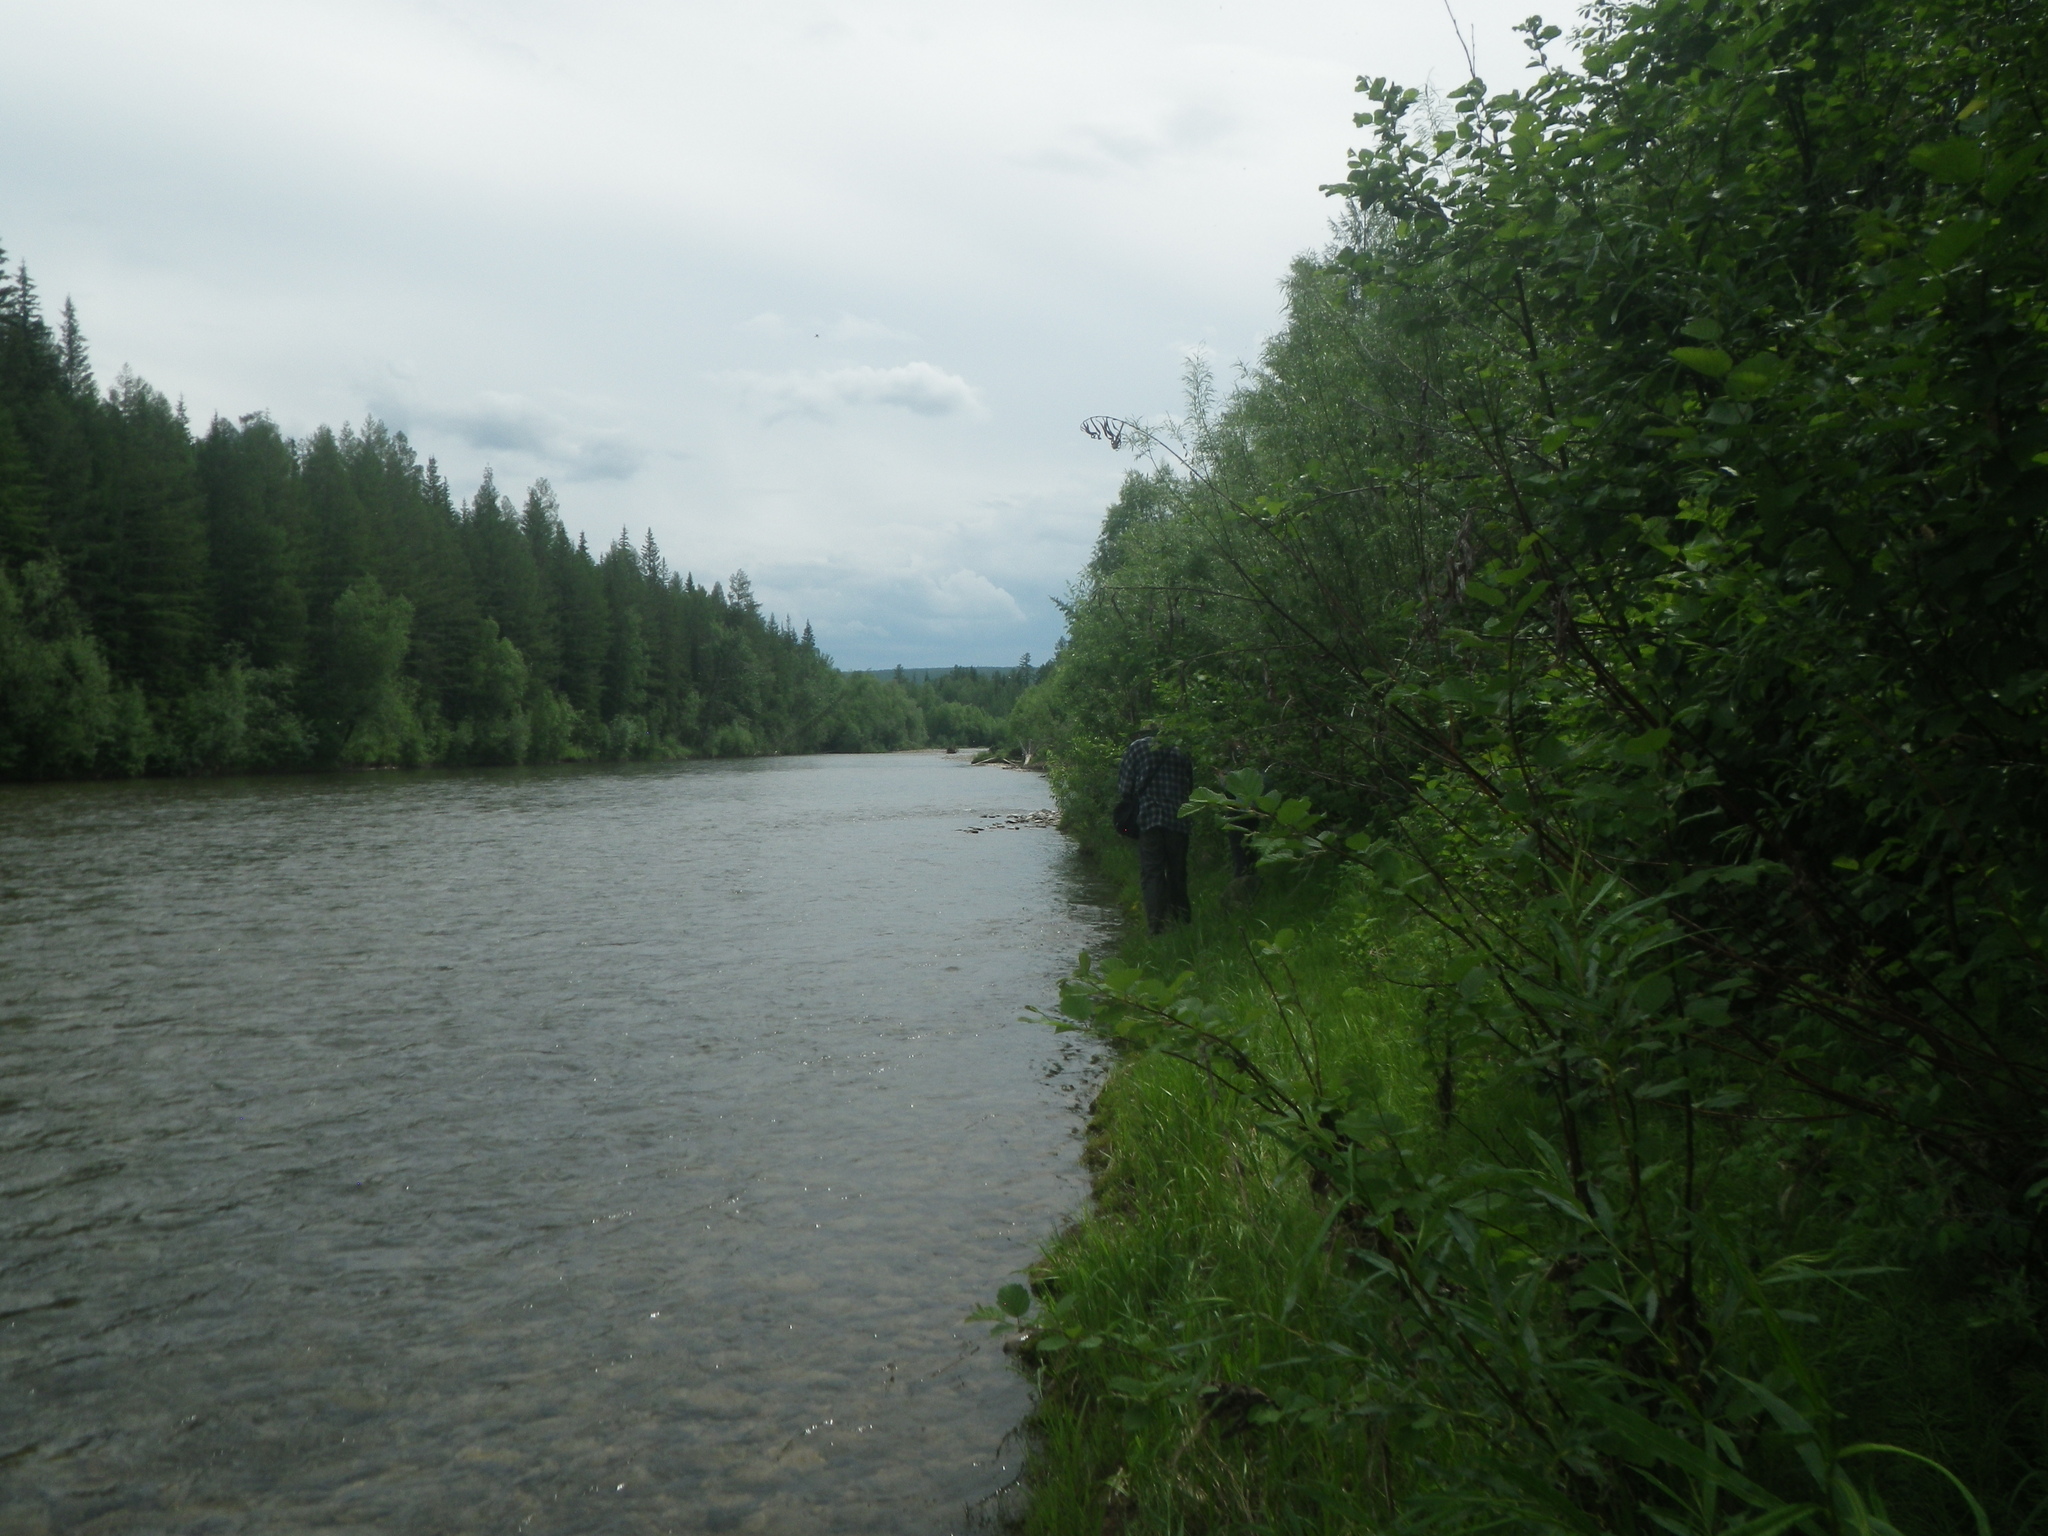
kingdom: Plantae
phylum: Tracheophyta
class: Pinopsida
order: Pinales
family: Pinaceae
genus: Larix
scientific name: Larix gmelinii
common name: Dahurian larch
